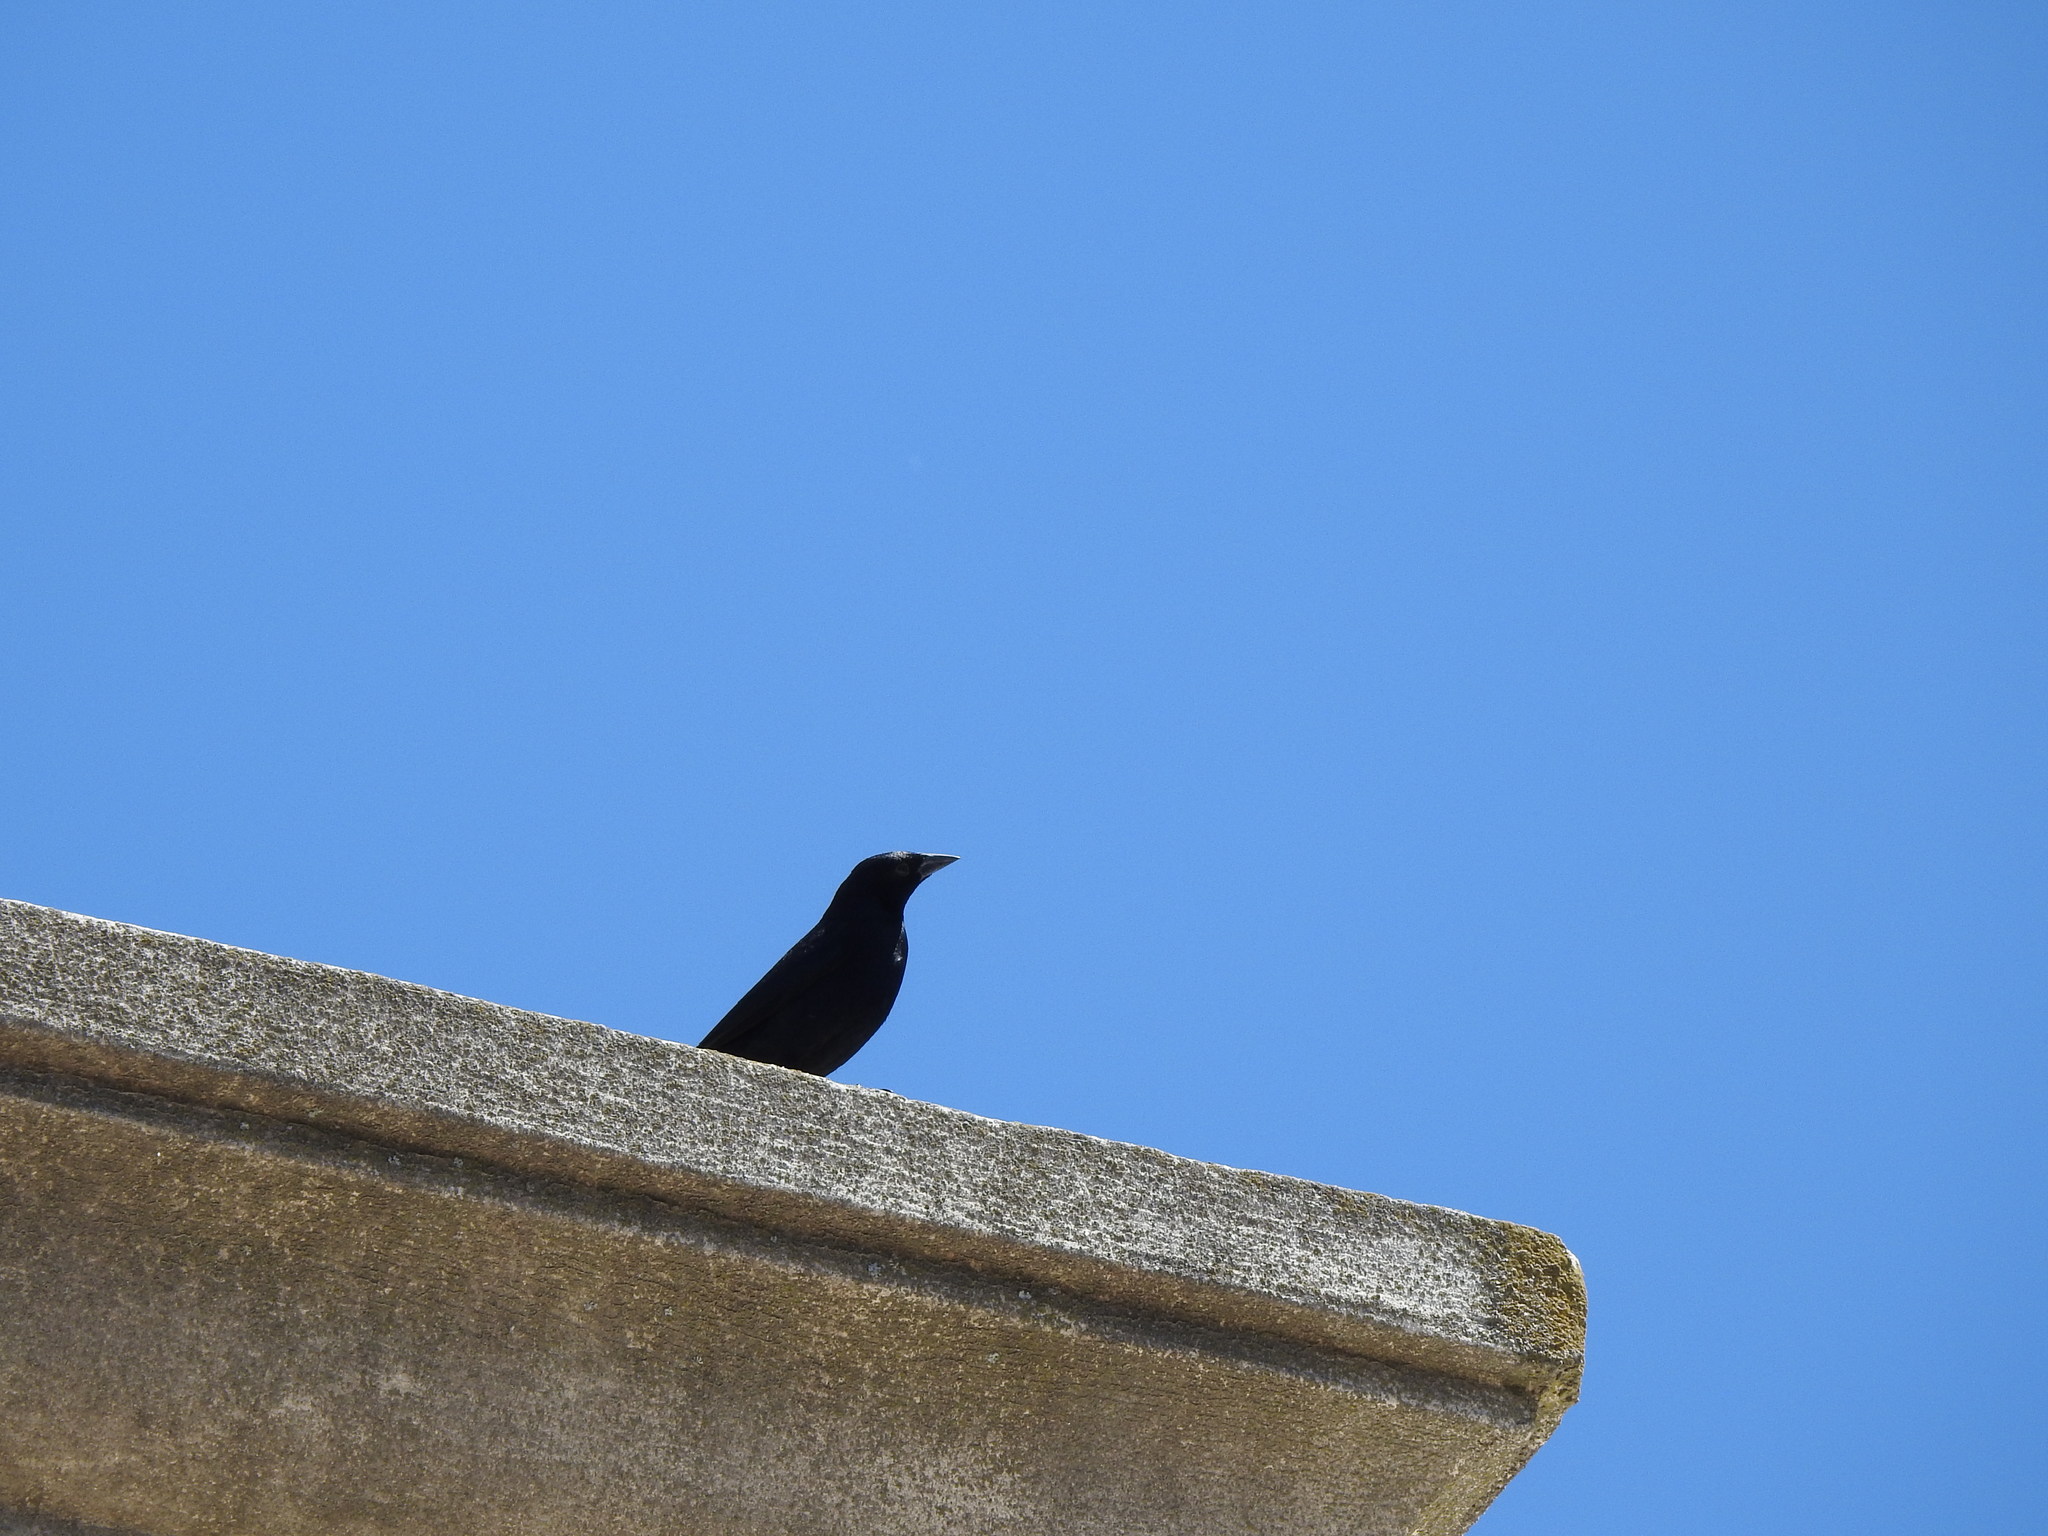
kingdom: Animalia
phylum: Chordata
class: Aves
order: Passeriformes
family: Icteridae
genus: Molothrus
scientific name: Molothrus bonariensis
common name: Shiny cowbird
